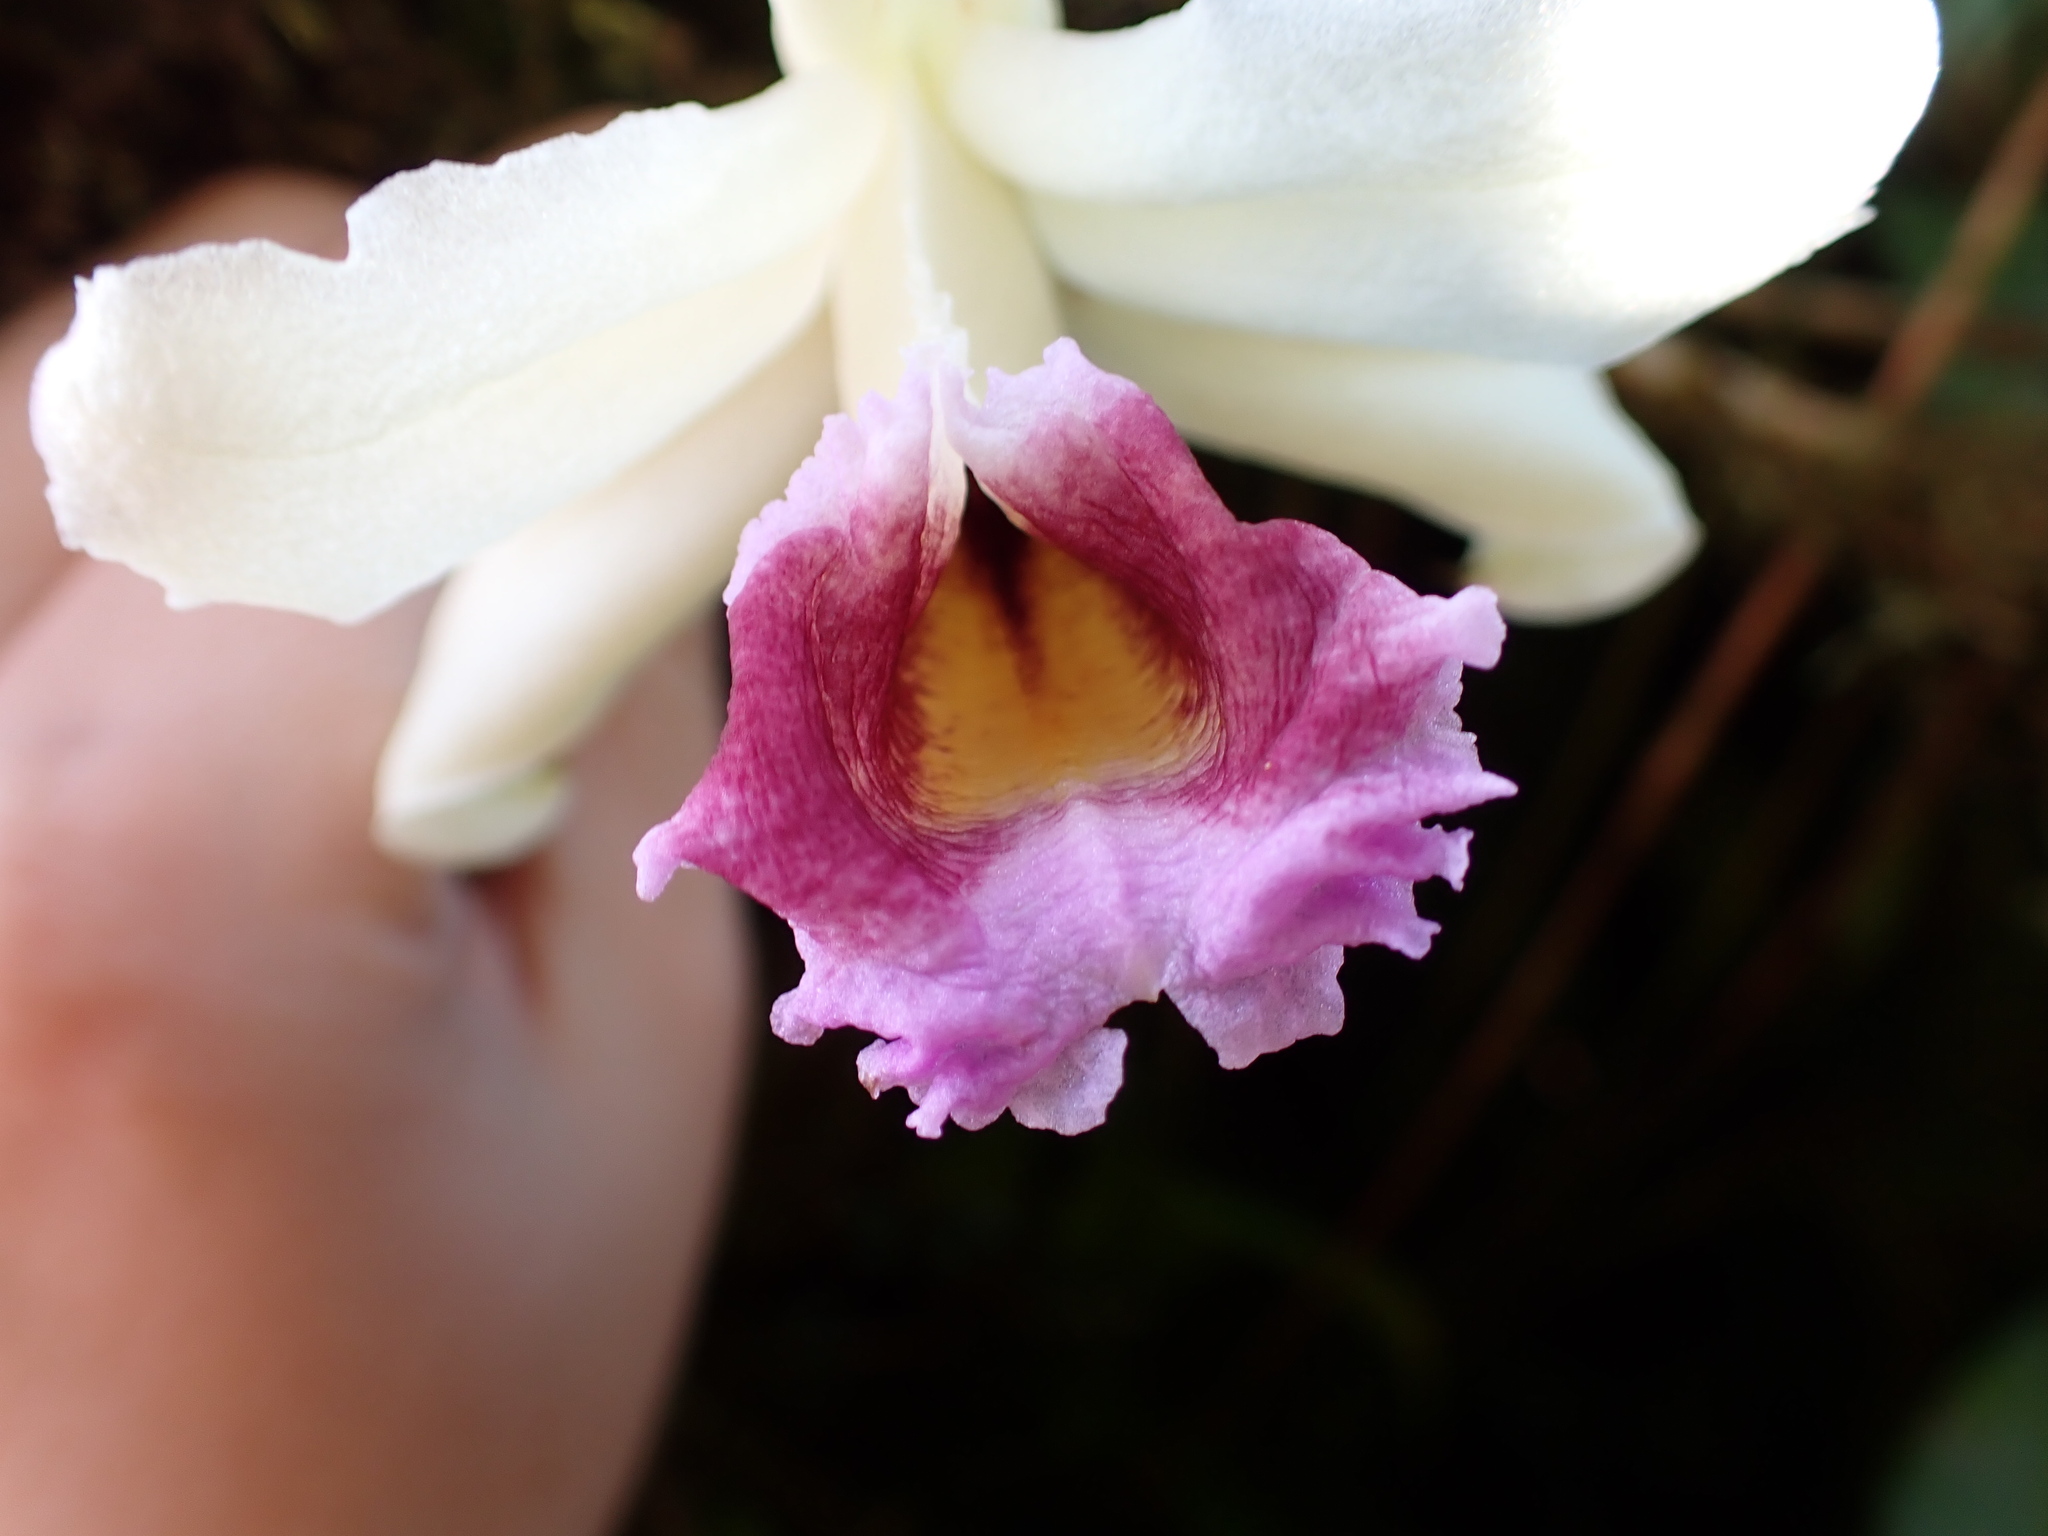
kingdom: Plantae
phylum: Tracheophyta
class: Liliopsida
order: Asparagales
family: Orchidaceae
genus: Sobralia
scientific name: Sobralia blancoi
